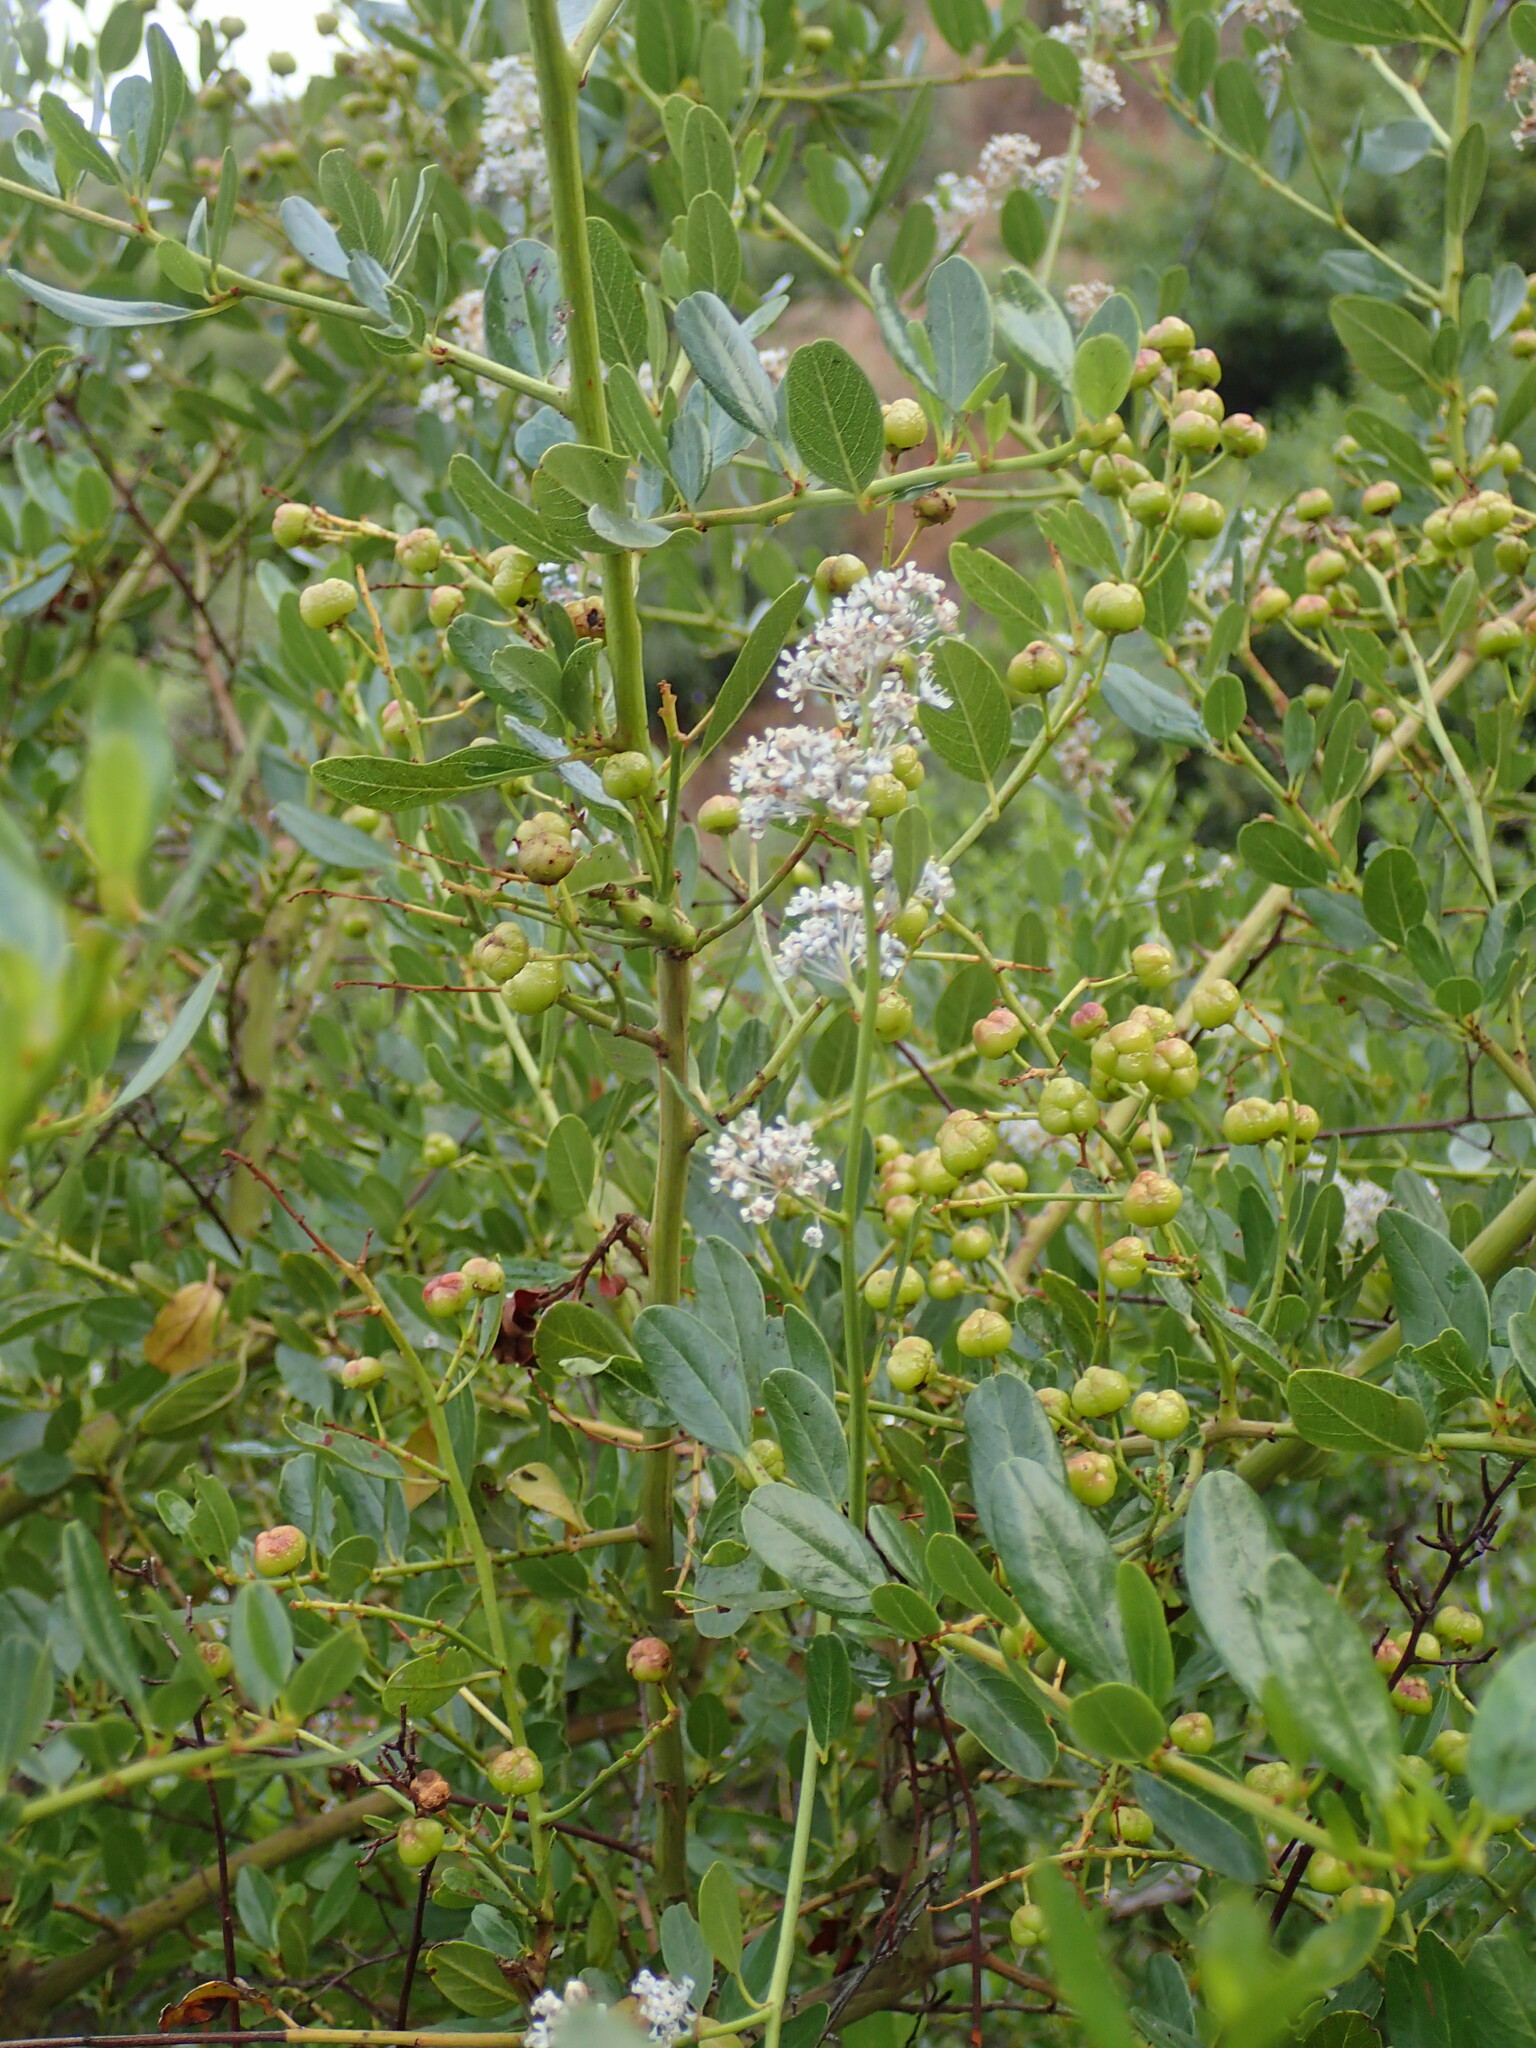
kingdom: Plantae
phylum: Tracheophyta
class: Magnoliopsida
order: Rosales
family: Rhamnaceae
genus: Ceanothus
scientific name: Ceanothus spinosus
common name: Greenbark whitethorn
